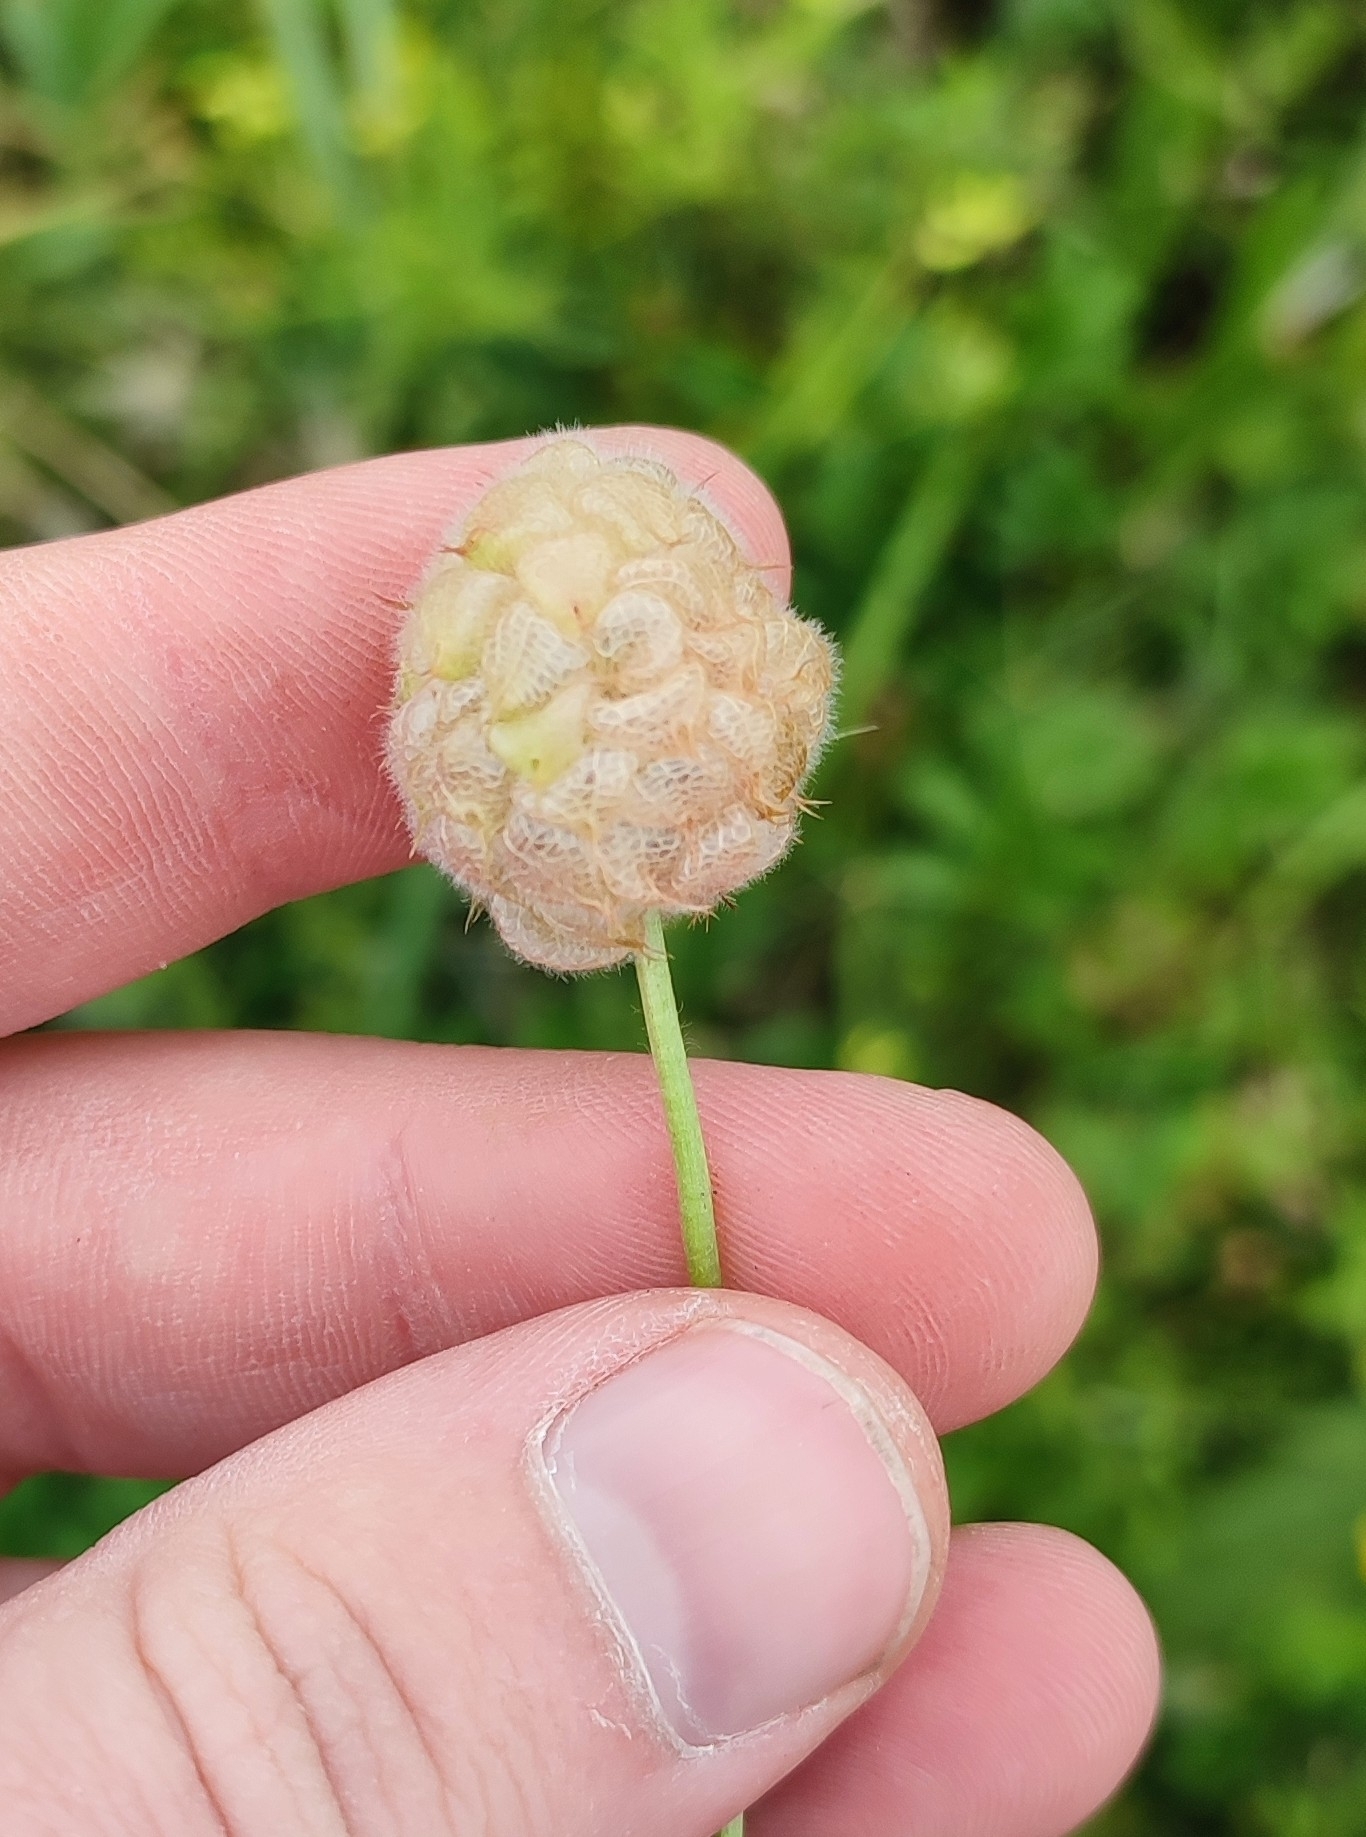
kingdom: Plantae
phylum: Tracheophyta
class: Magnoliopsida
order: Fabales
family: Fabaceae
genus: Trifolium
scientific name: Trifolium fragiferum
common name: Strawberry clover
